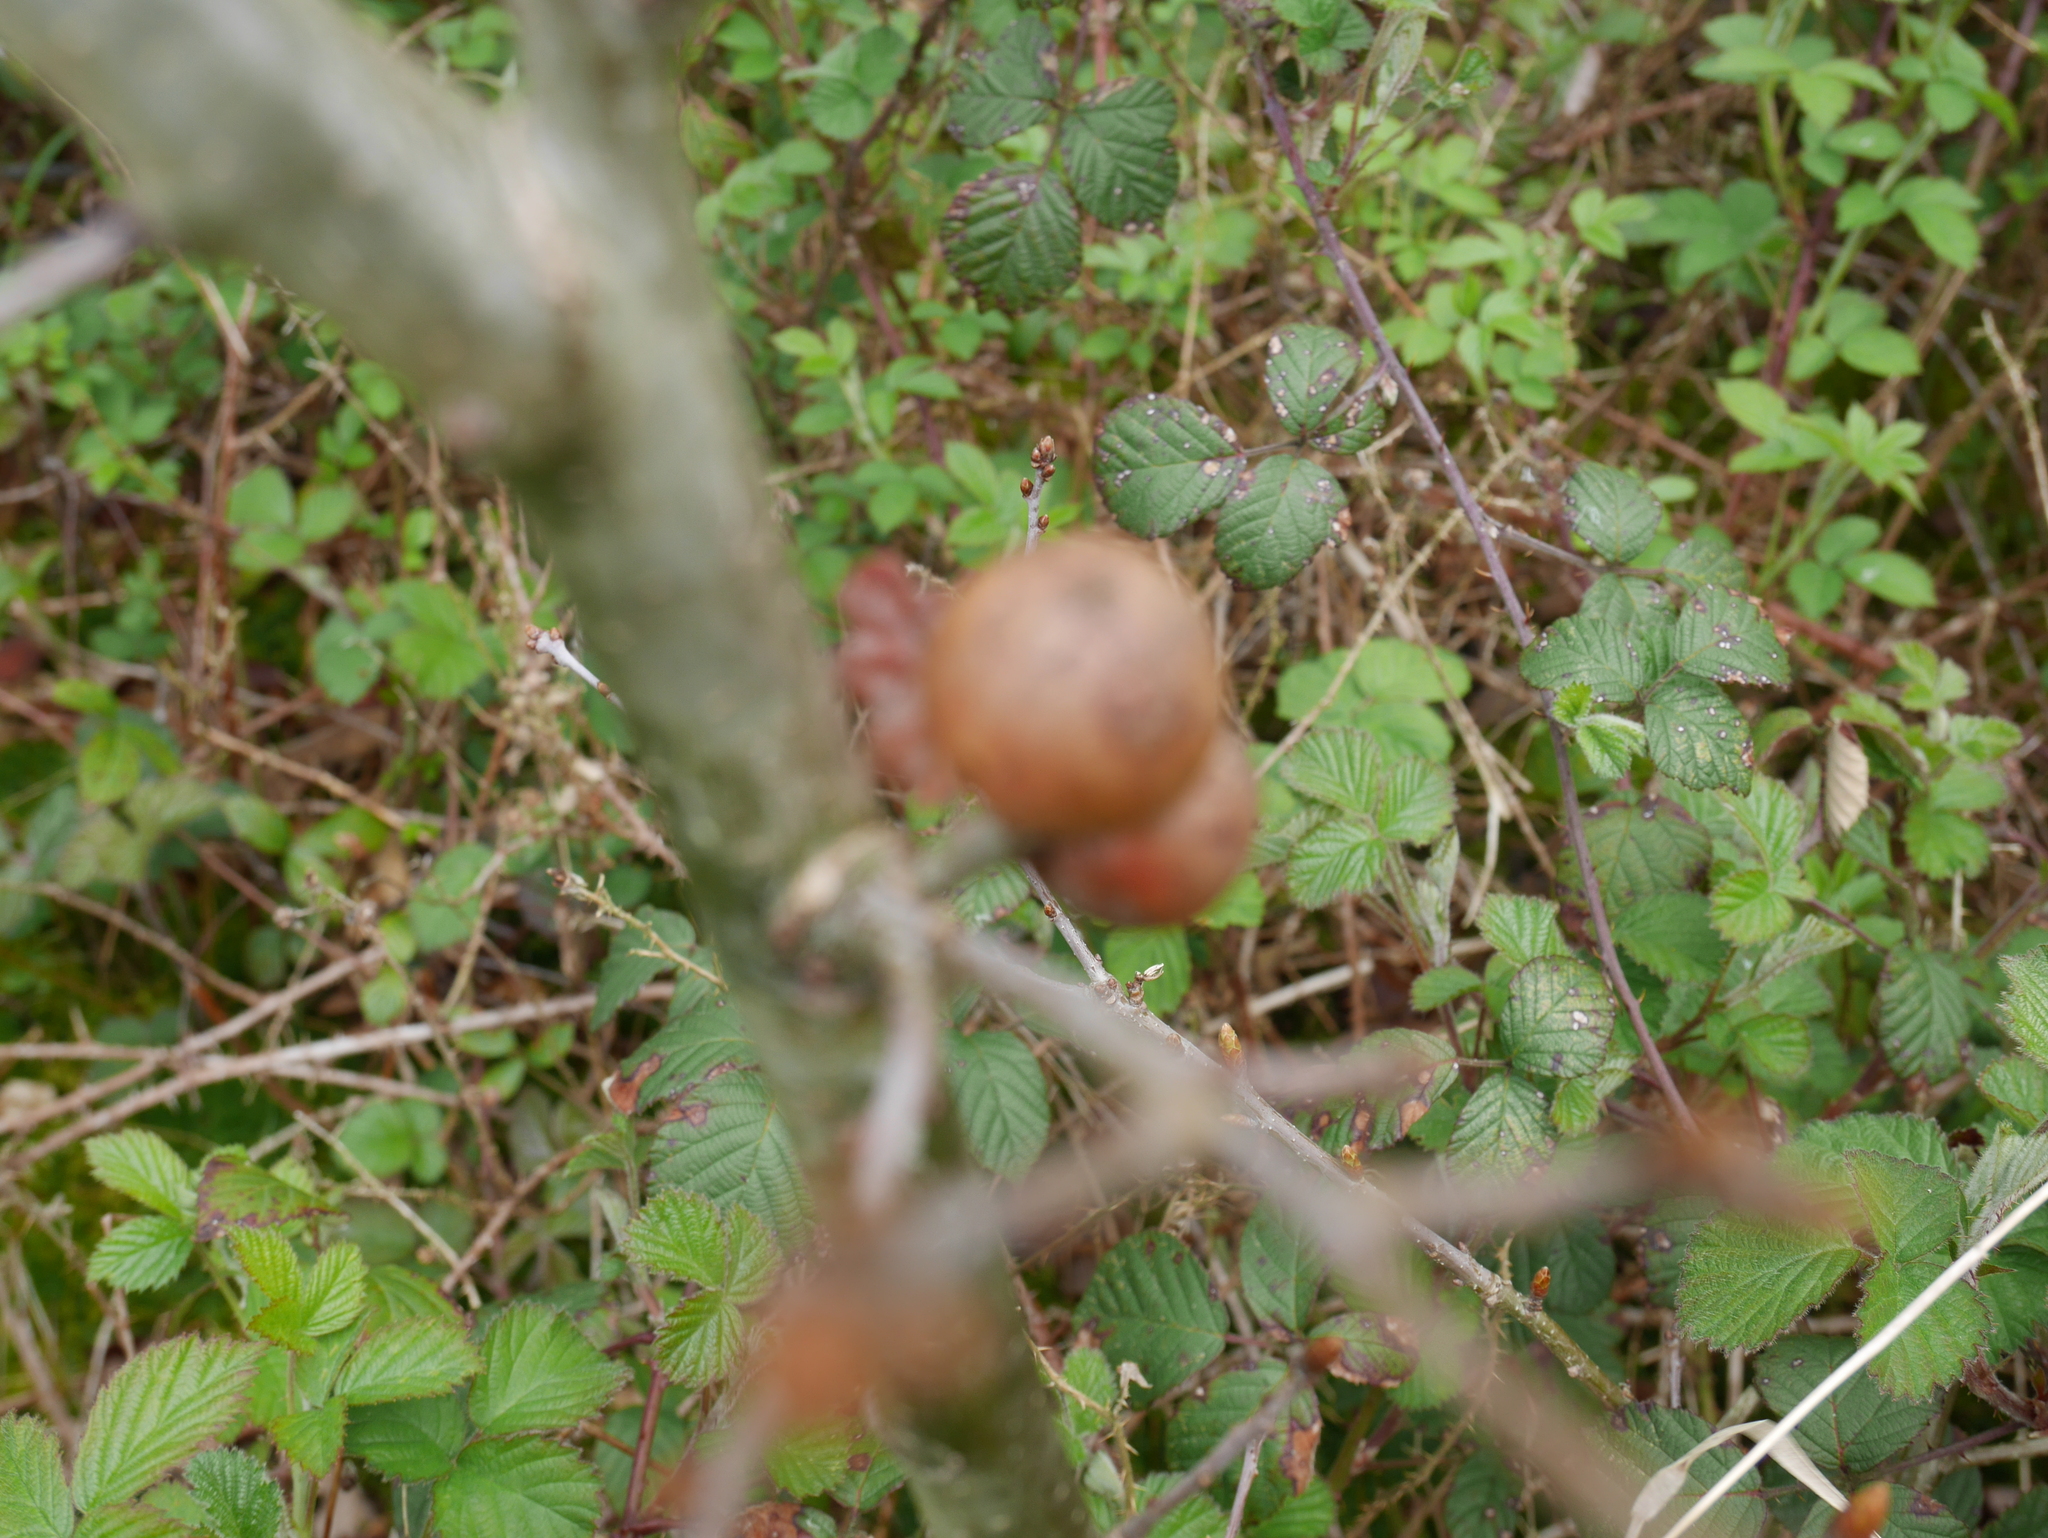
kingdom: Animalia
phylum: Arthropoda
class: Insecta
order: Hymenoptera
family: Cynipidae
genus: Andricus
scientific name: Andricus kollari
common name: Marble gall
